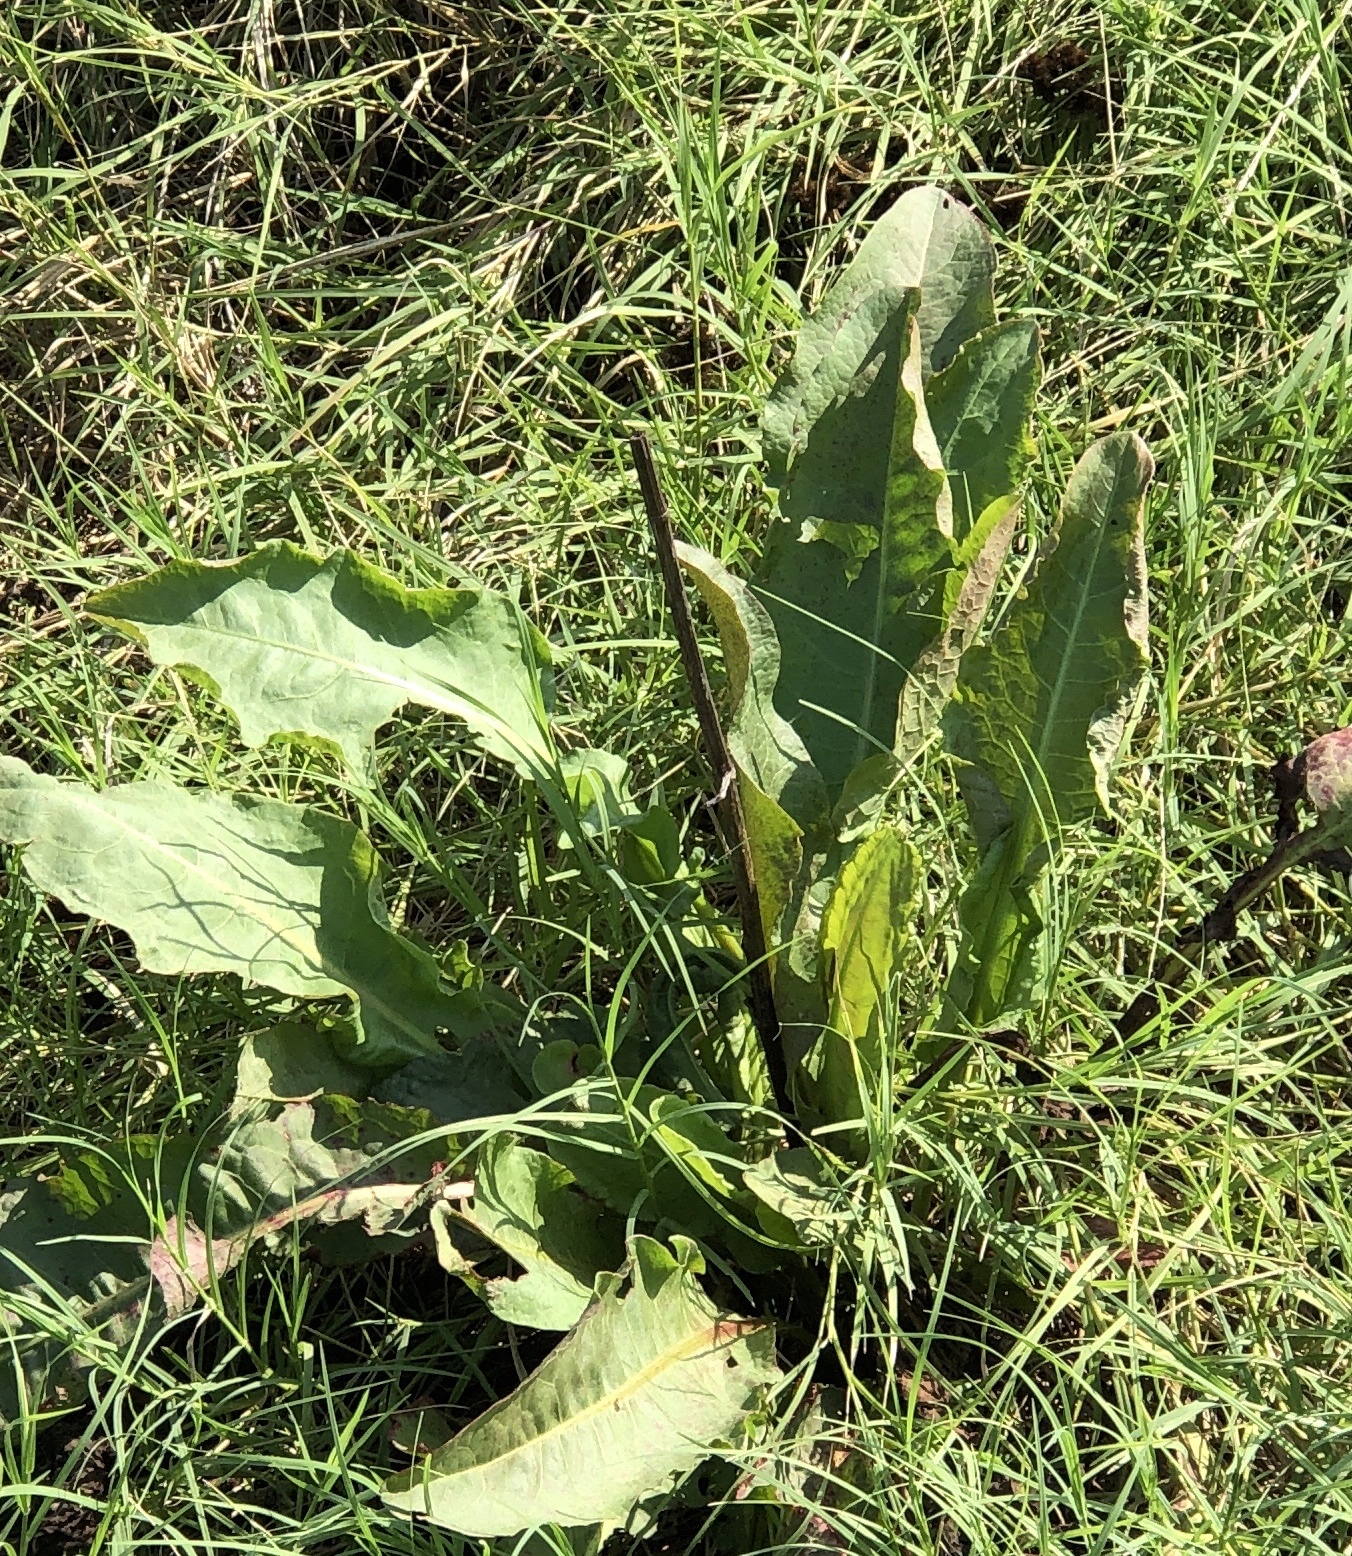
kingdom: Plantae
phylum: Tracheophyta
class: Magnoliopsida
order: Caryophyllales
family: Polygonaceae
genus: Rumex
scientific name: Rumex crispus
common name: Curled dock
